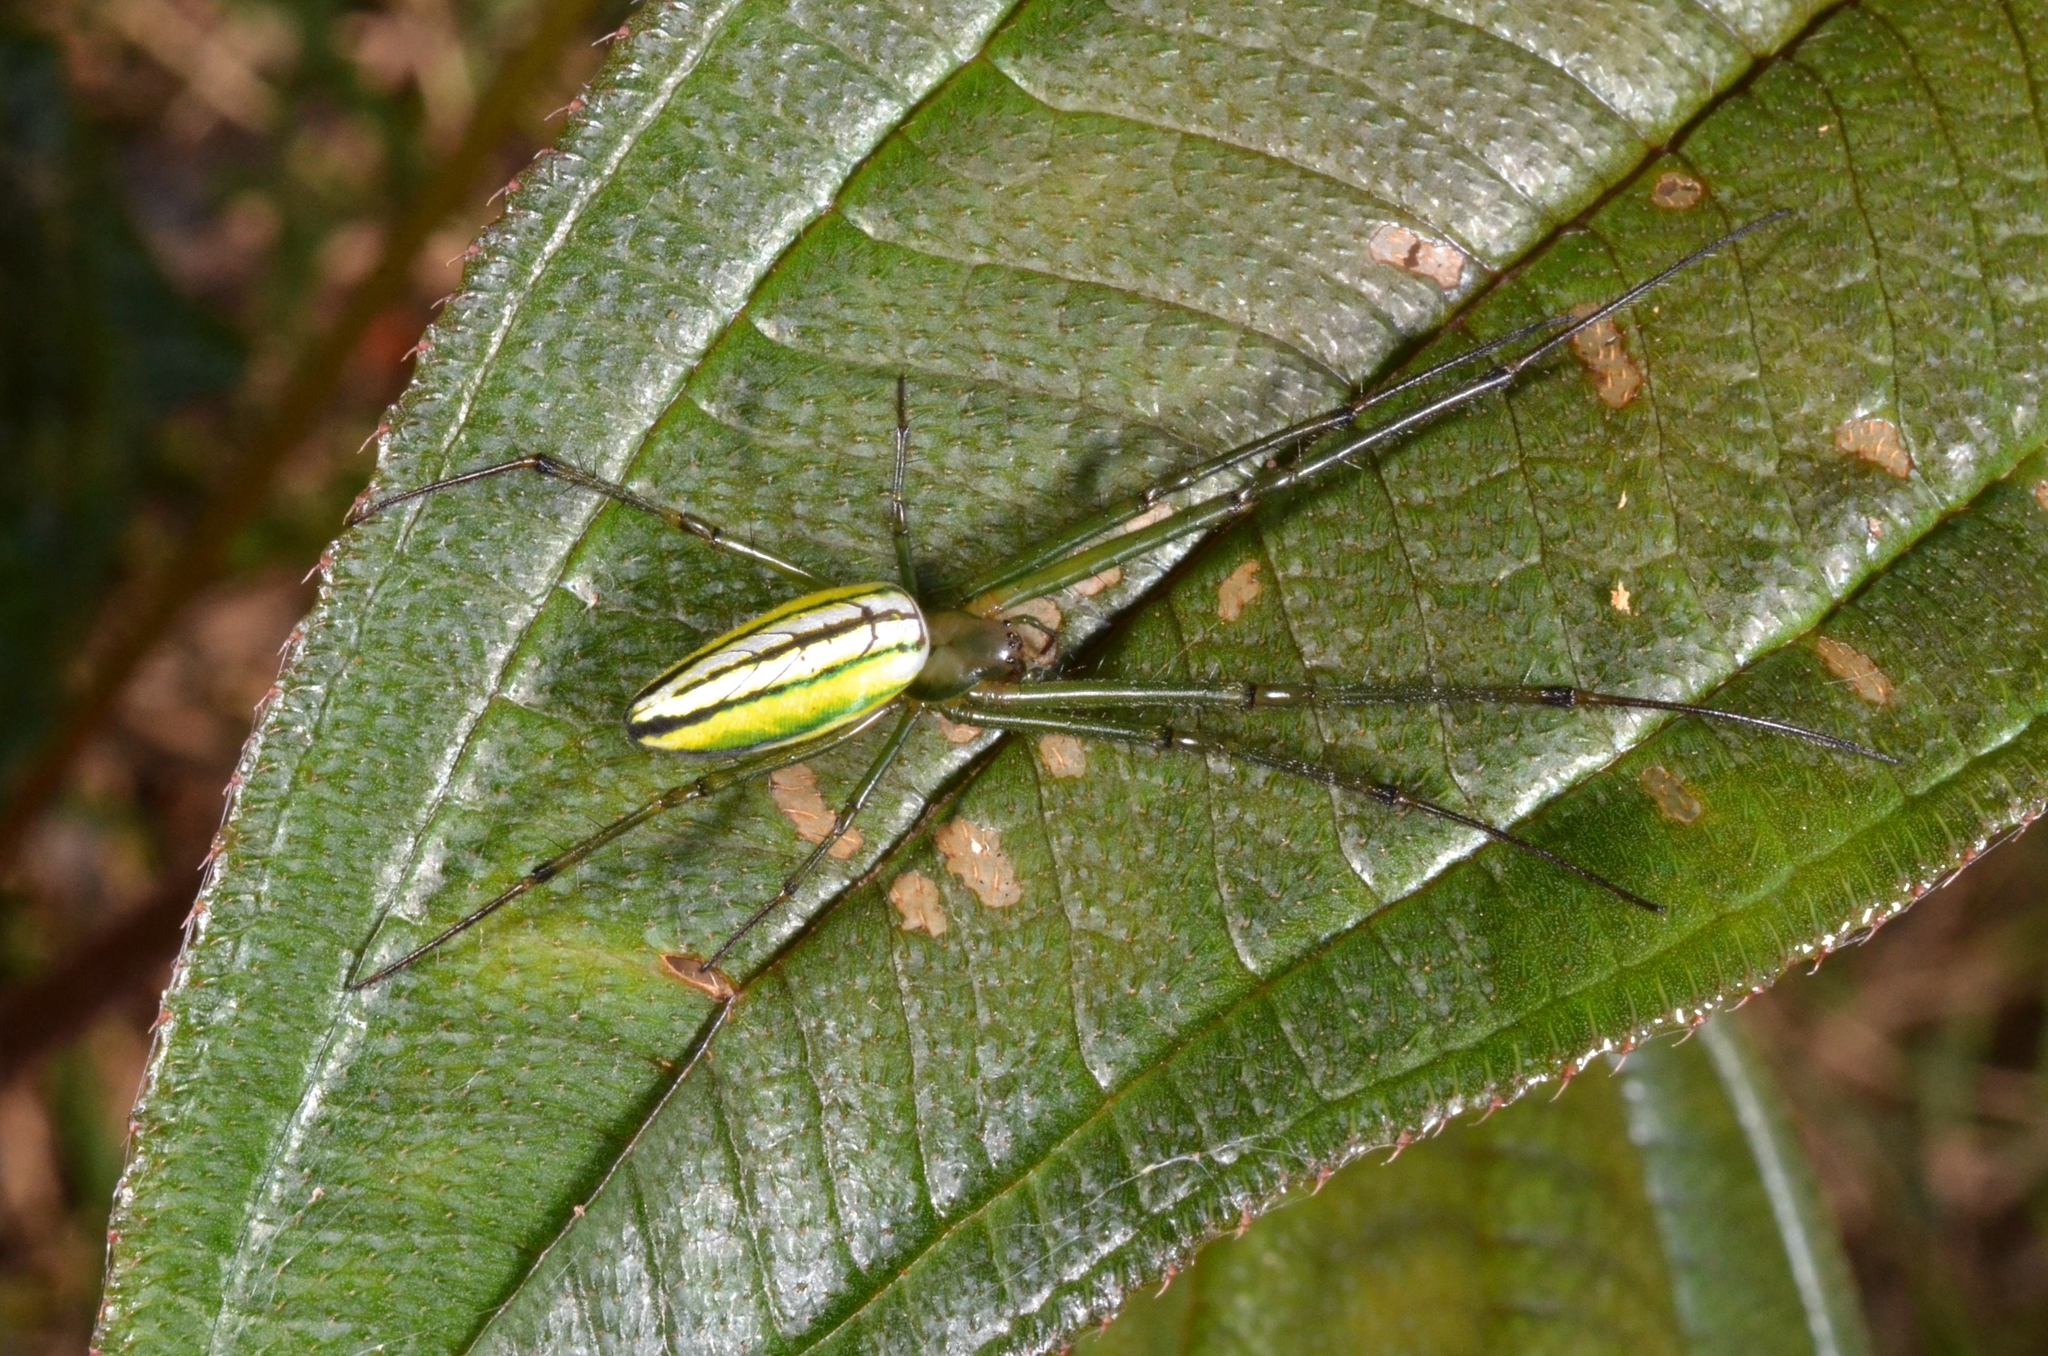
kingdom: Animalia
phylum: Arthropoda
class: Arachnida
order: Araneae
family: Tetragnathidae
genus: Leucauge
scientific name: Leucauge celebesiana
